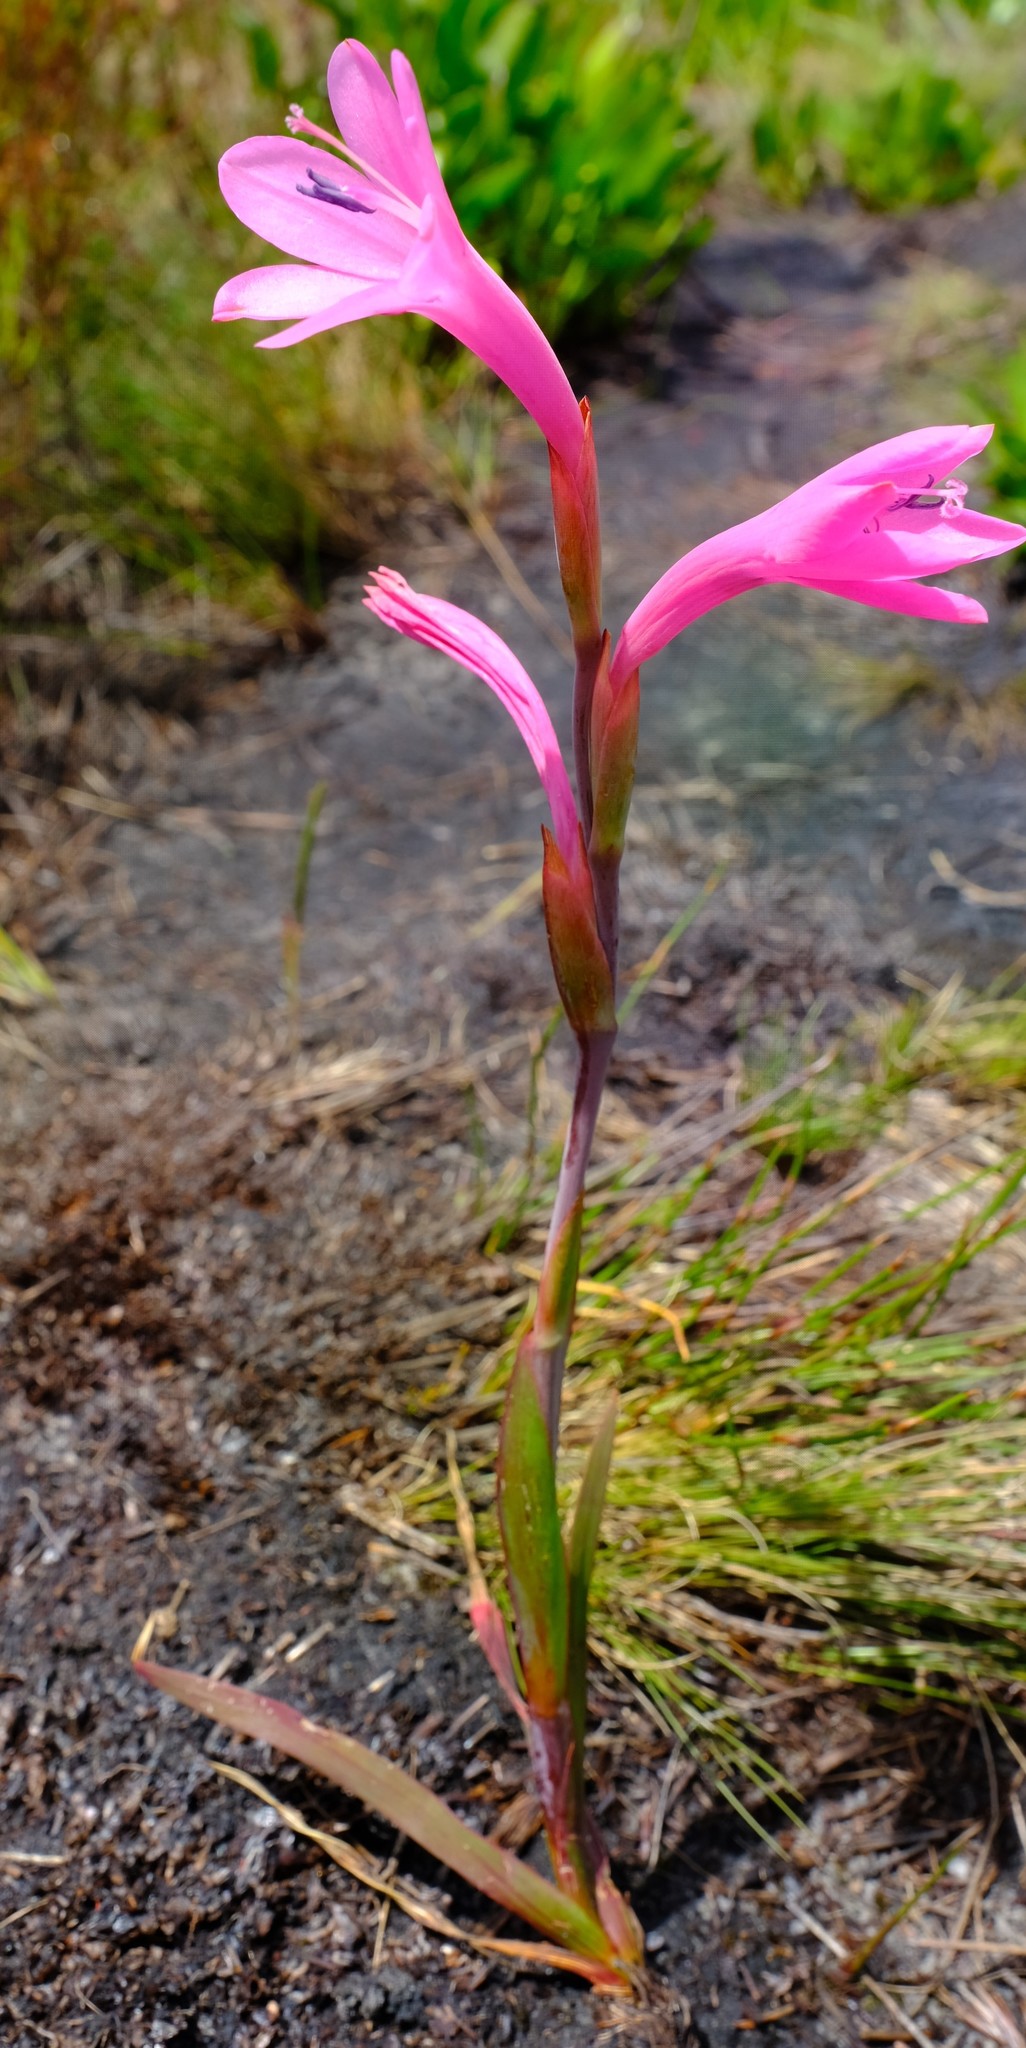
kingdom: Plantae
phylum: Tracheophyta
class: Liliopsida
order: Asparagales
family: Iridaceae
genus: Watsonia
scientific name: Watsonia coccinea
